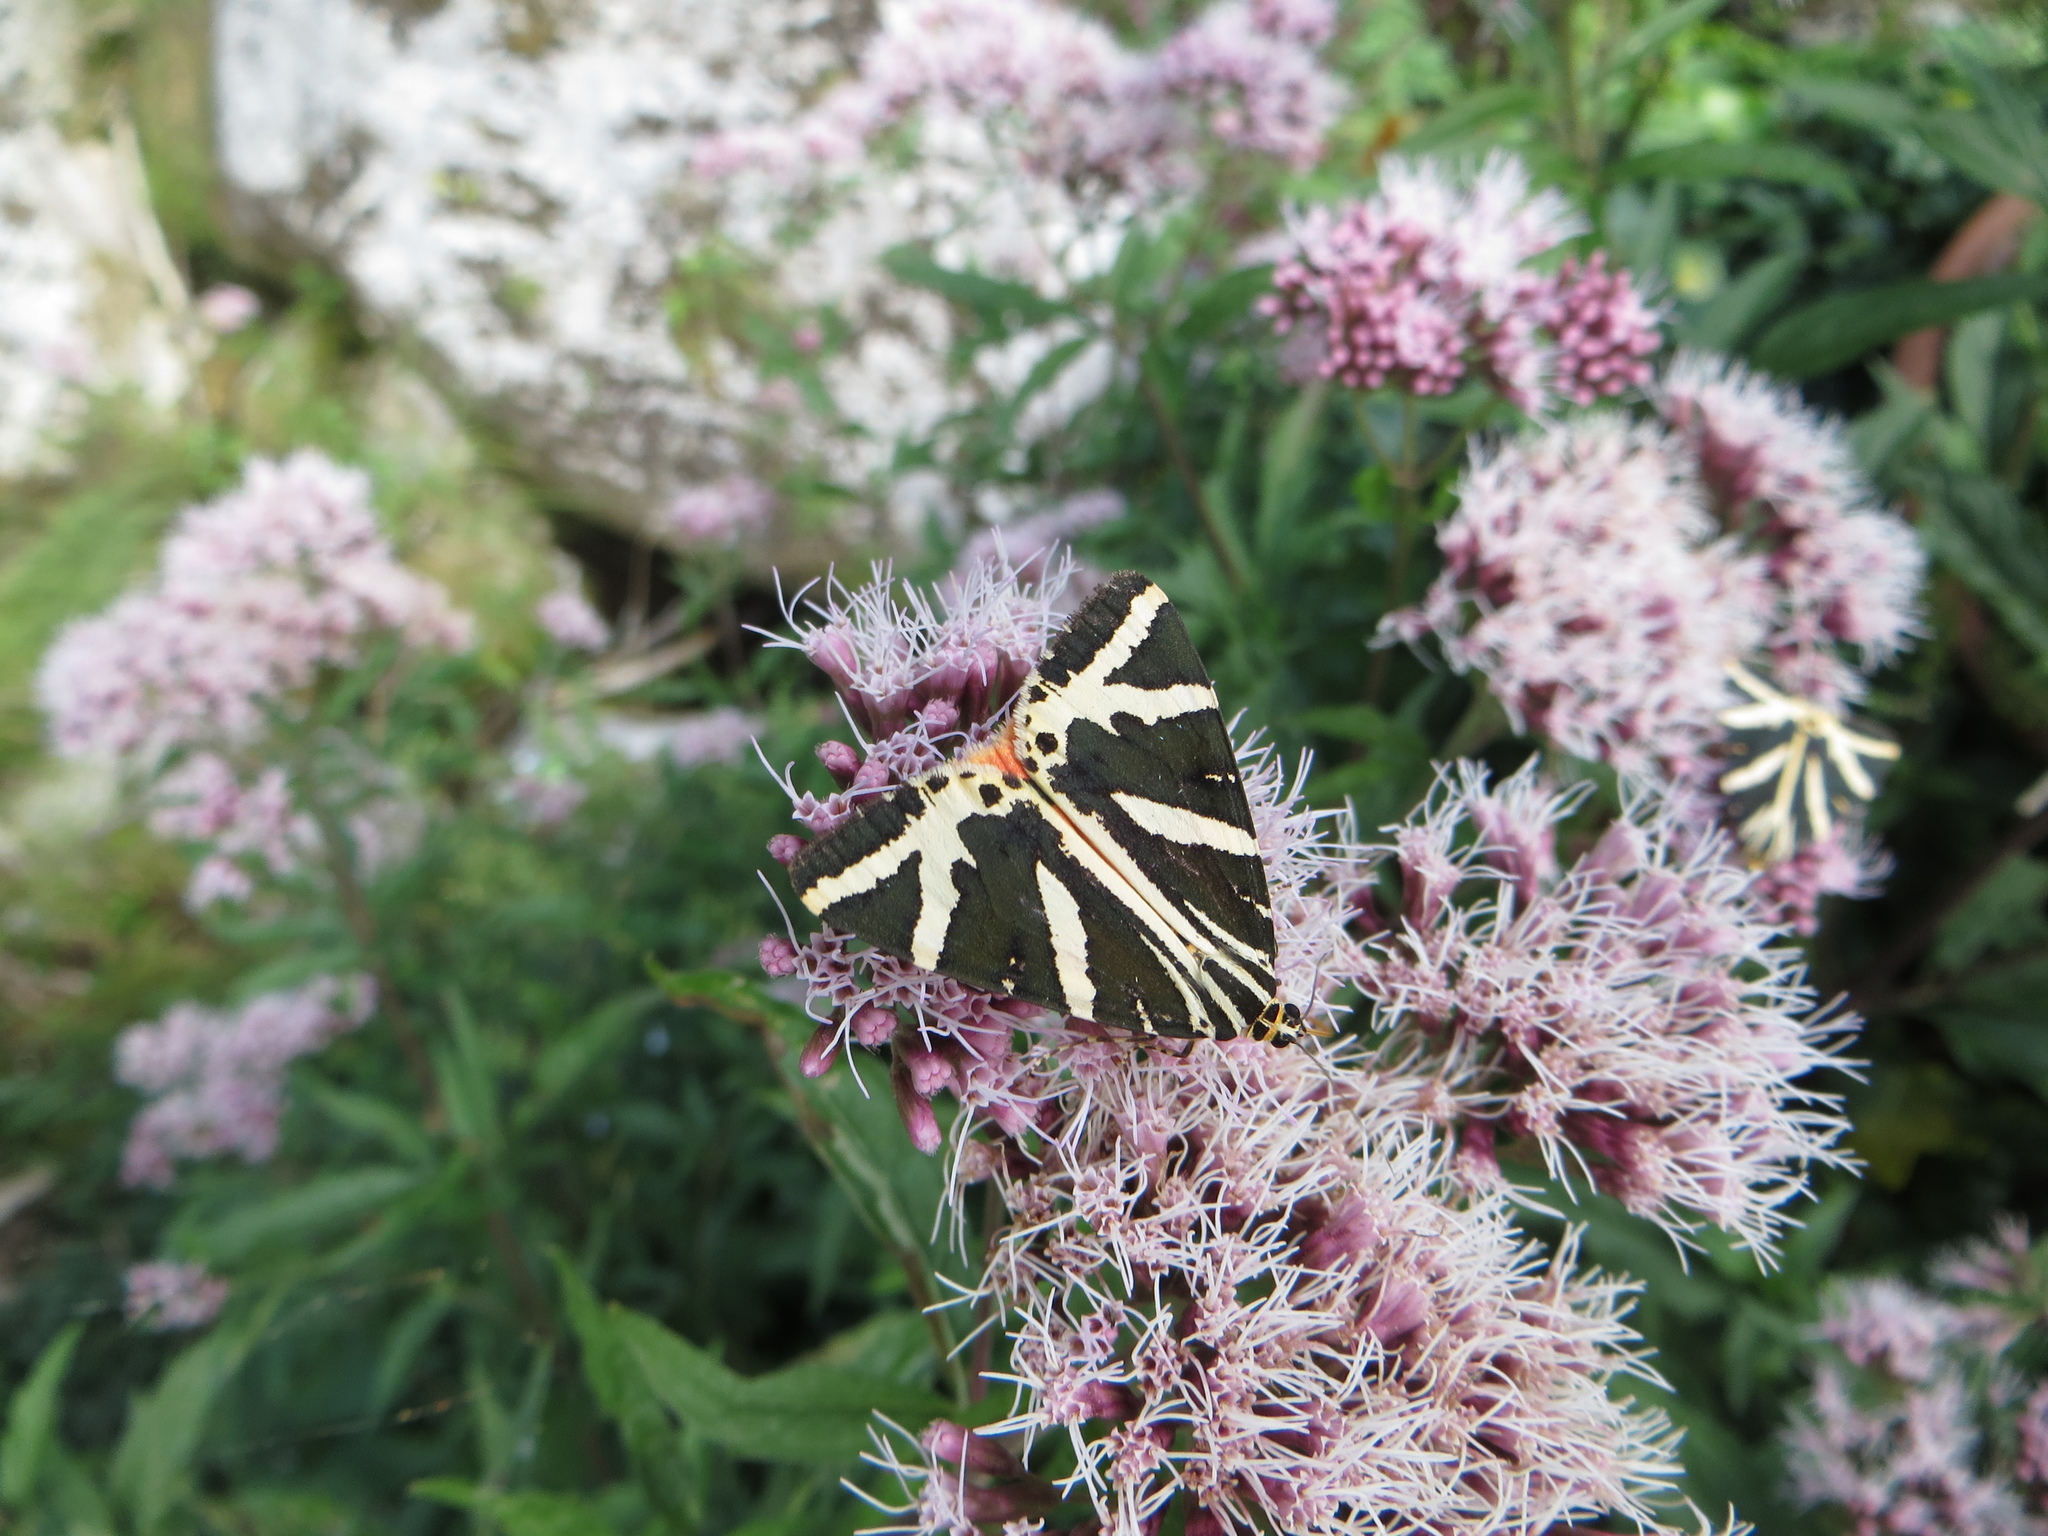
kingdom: Animalia
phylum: Arthropoda
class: Insecta
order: Lepidoptera
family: Erebidae
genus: Euplagia
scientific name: Euplagia quadripunctaria
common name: Jersey tiger
